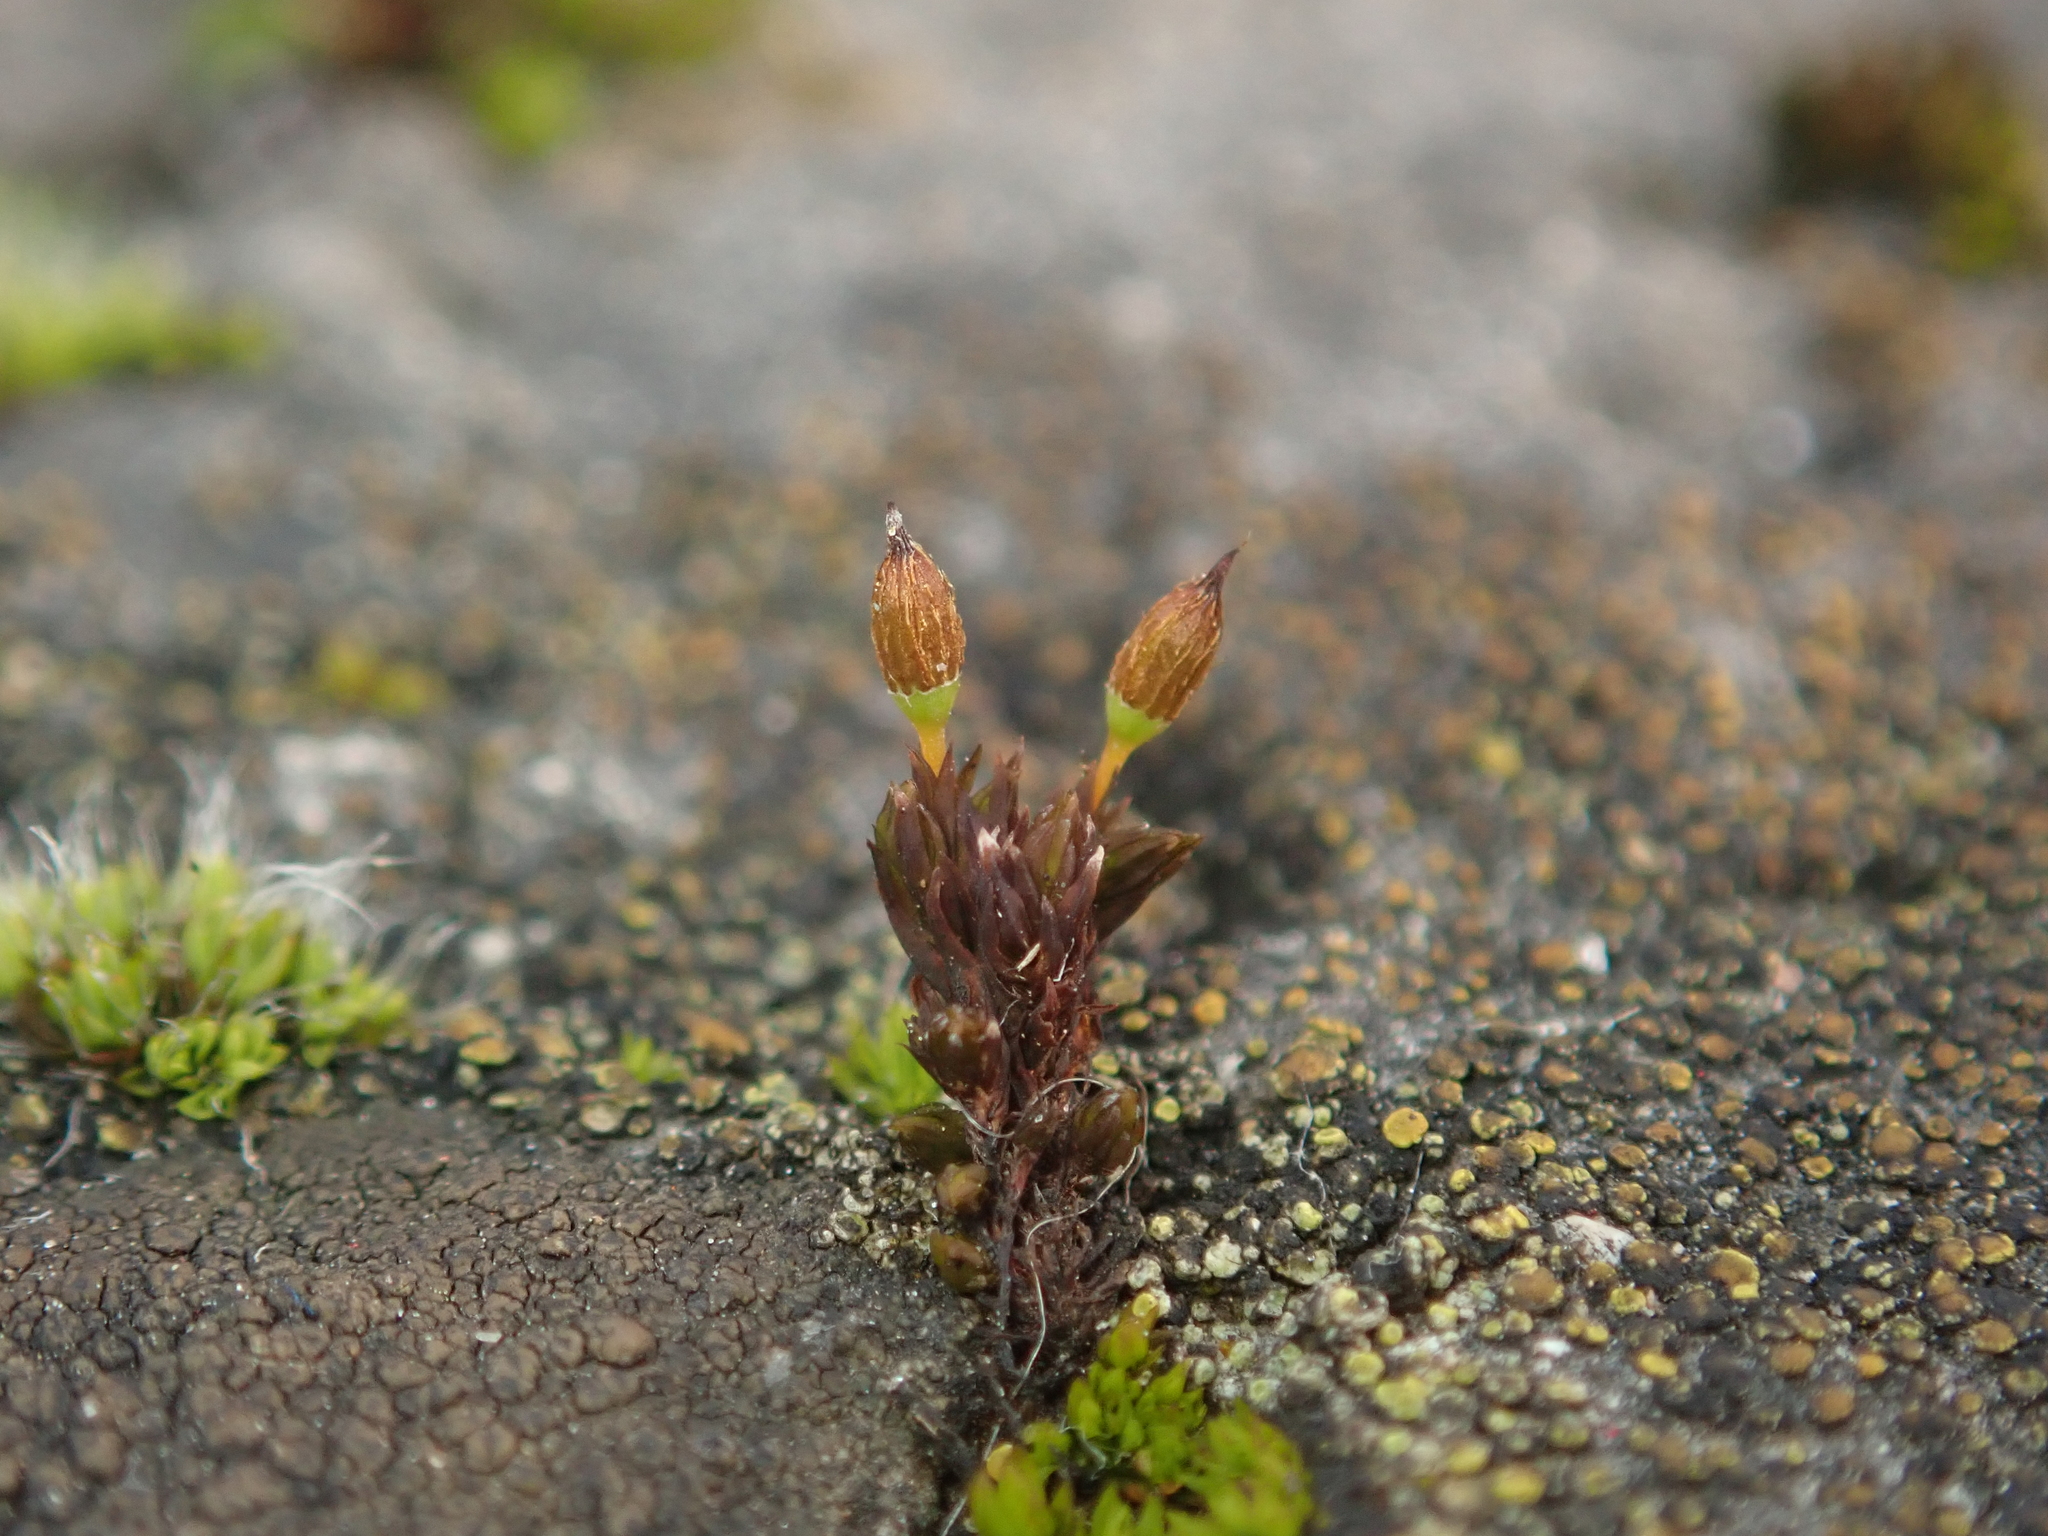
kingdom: Plantae
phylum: Bryophyta
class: Bryopsida
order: Orthotrichales
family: Orthotrichaceae
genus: Orthotrichum
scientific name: Orthotrichum anomalum
